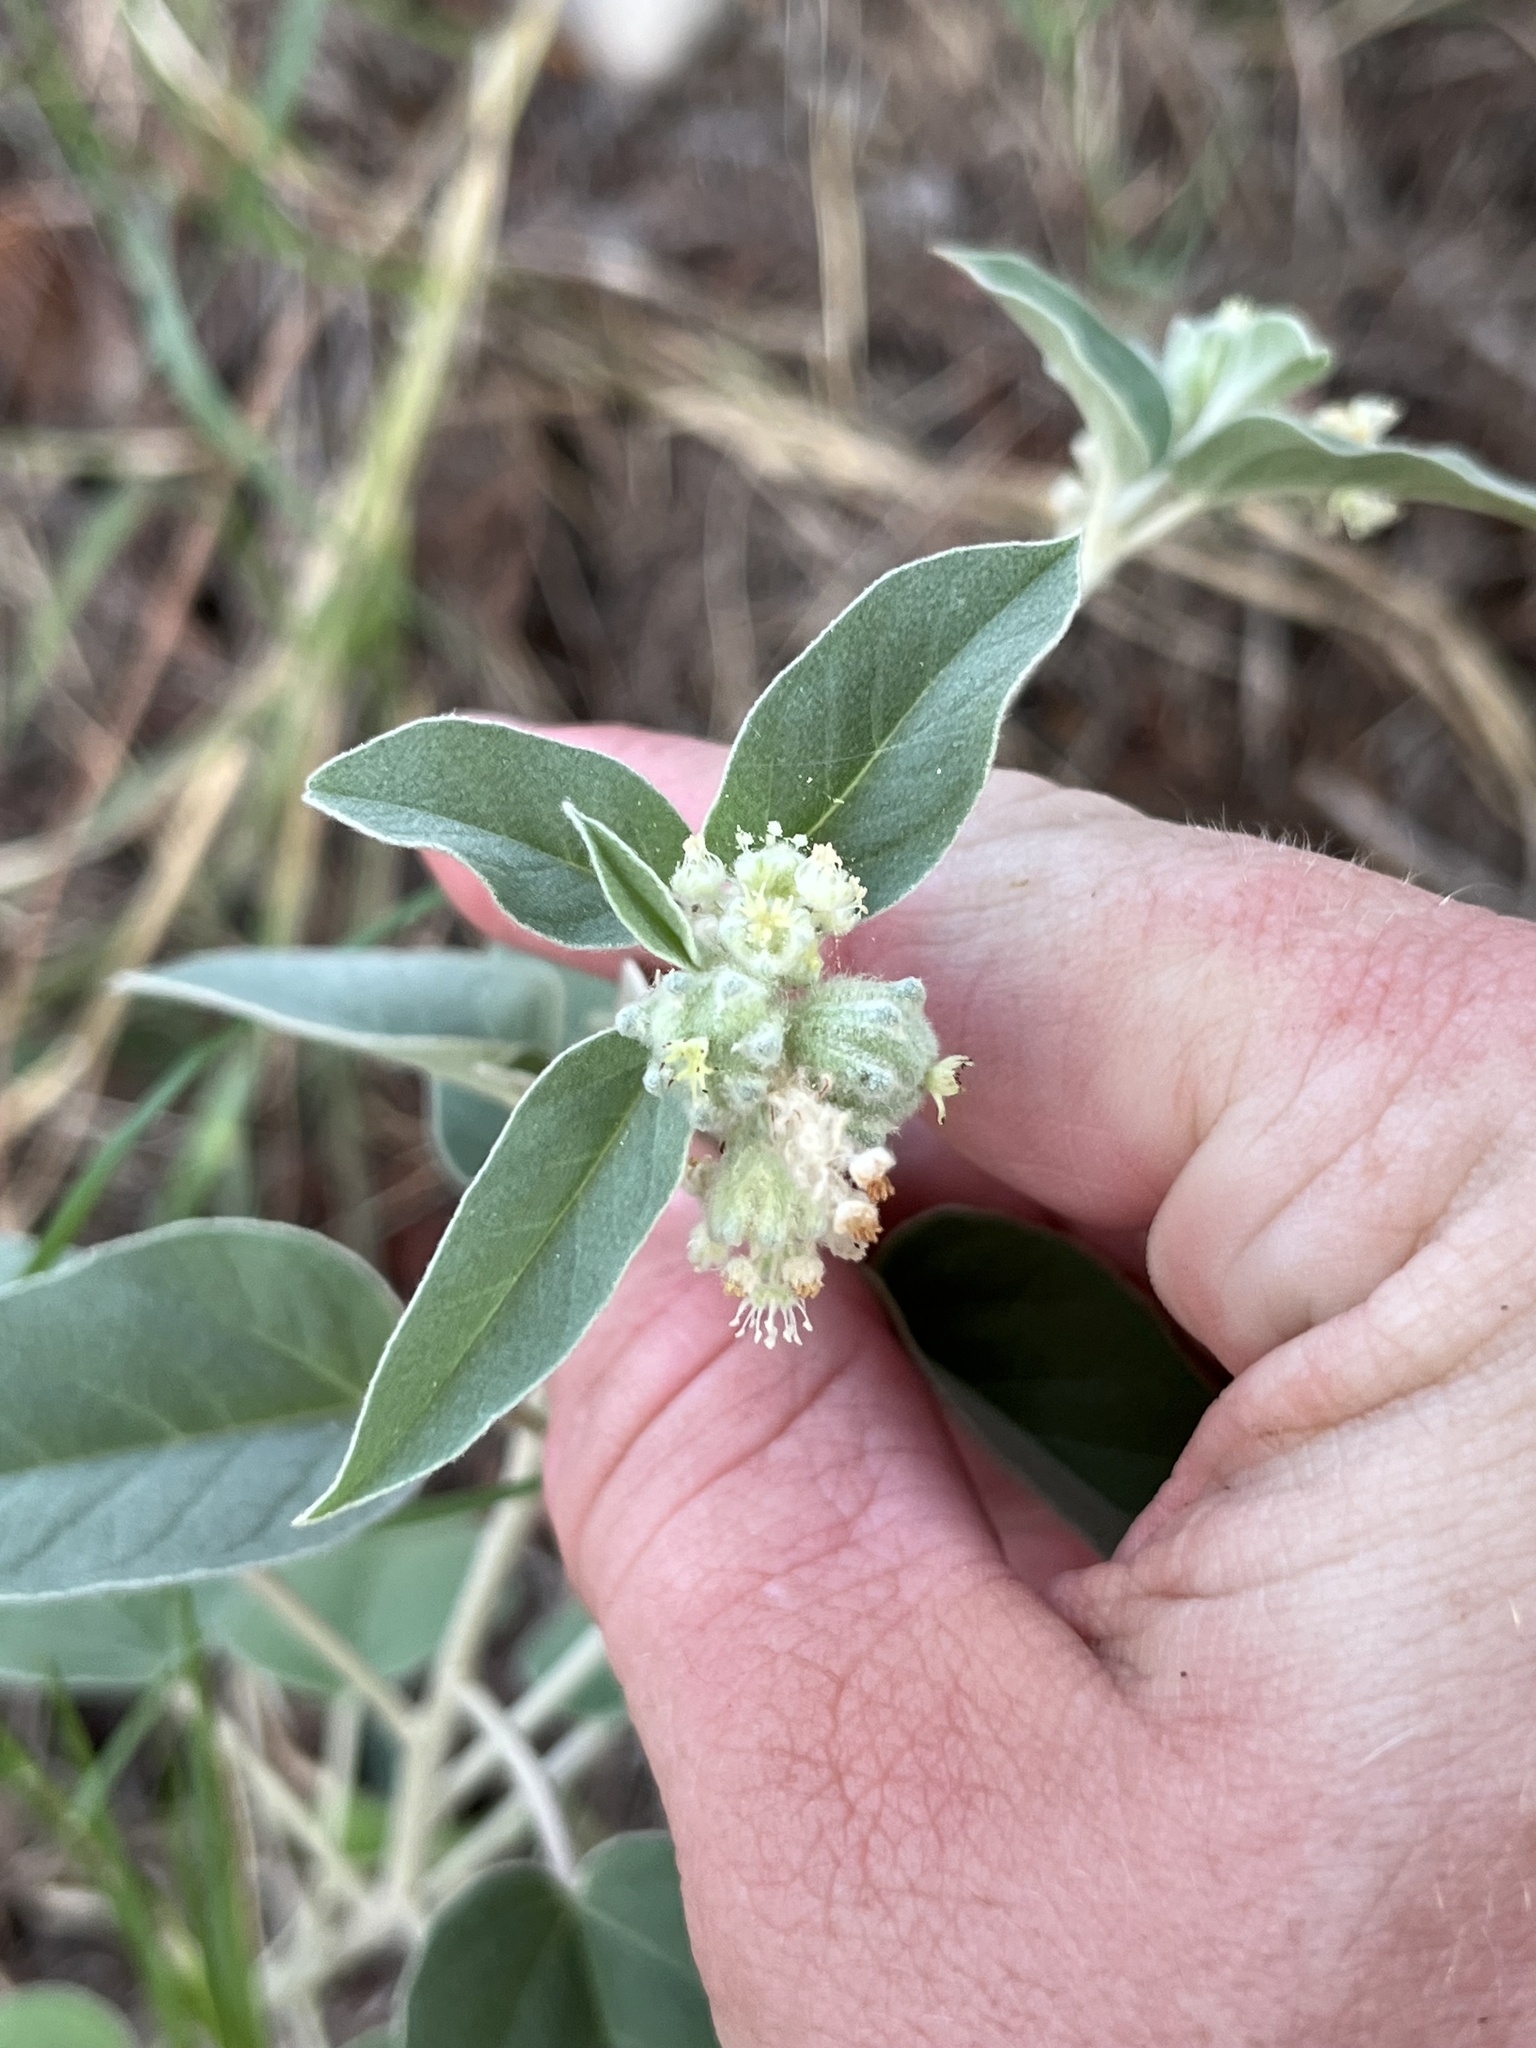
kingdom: Plantae
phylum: Tracheophyta
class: Magnoliopsida
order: Malpighiales
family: Euphorbiaceae
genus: Croton
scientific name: Croton lindheimeri
